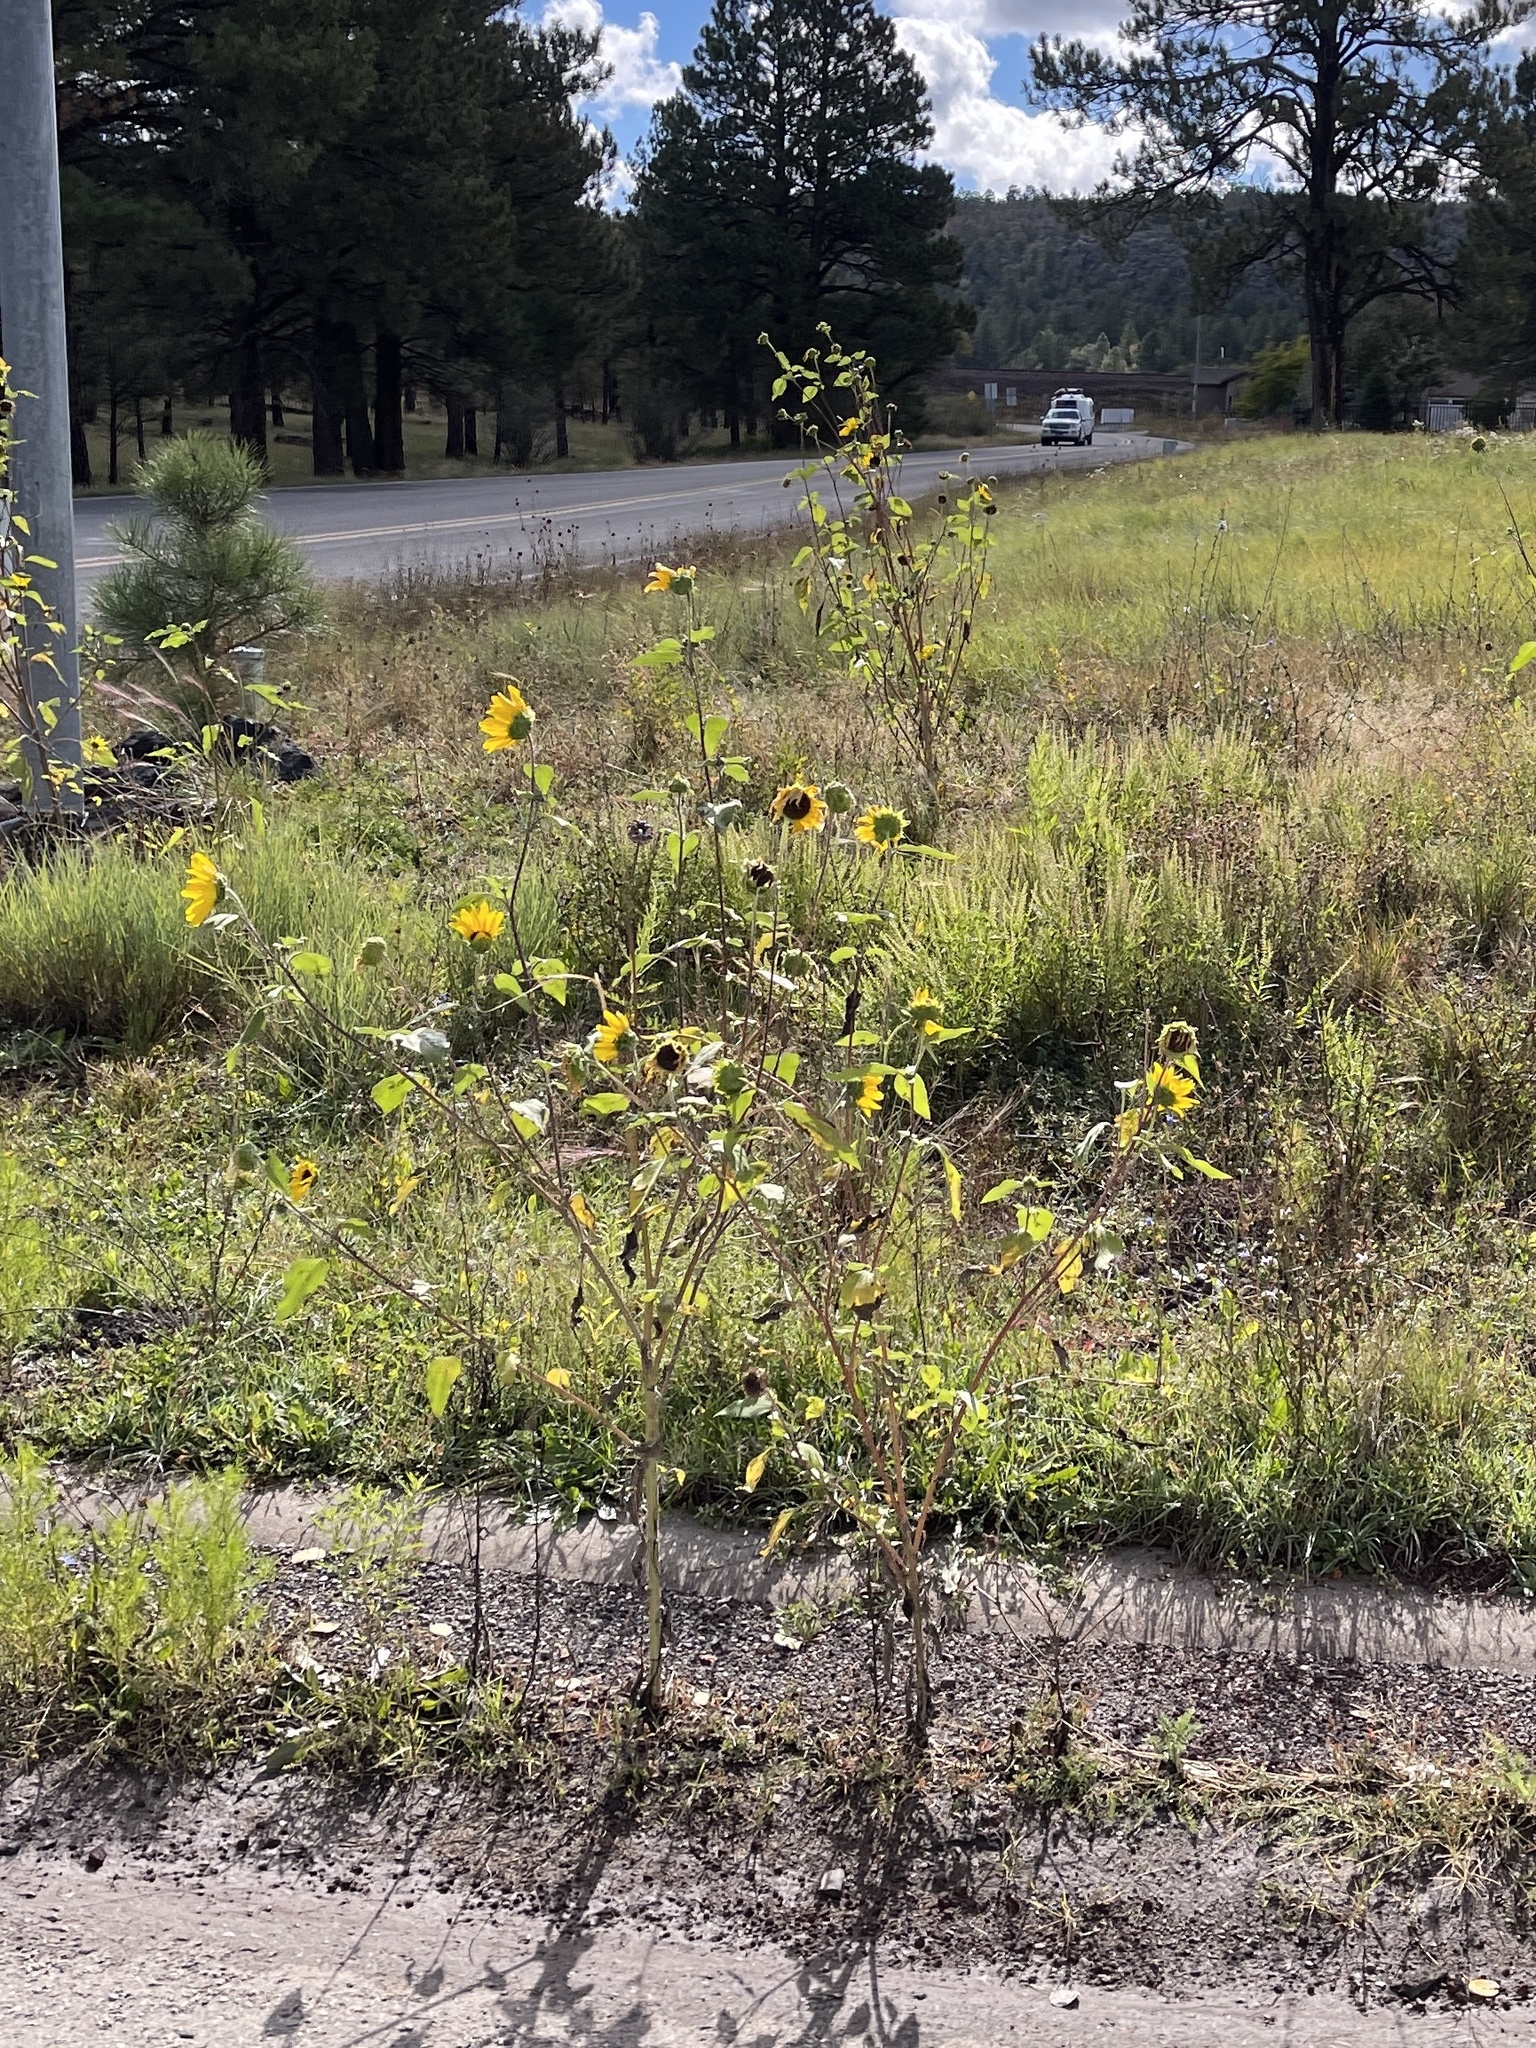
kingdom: Plantae
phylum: Tracheophyta
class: Magnoliopsida
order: Asterales
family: Asteraceae
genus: Helianthus
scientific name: Helianthus petiolaris
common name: Lesser sunflower
